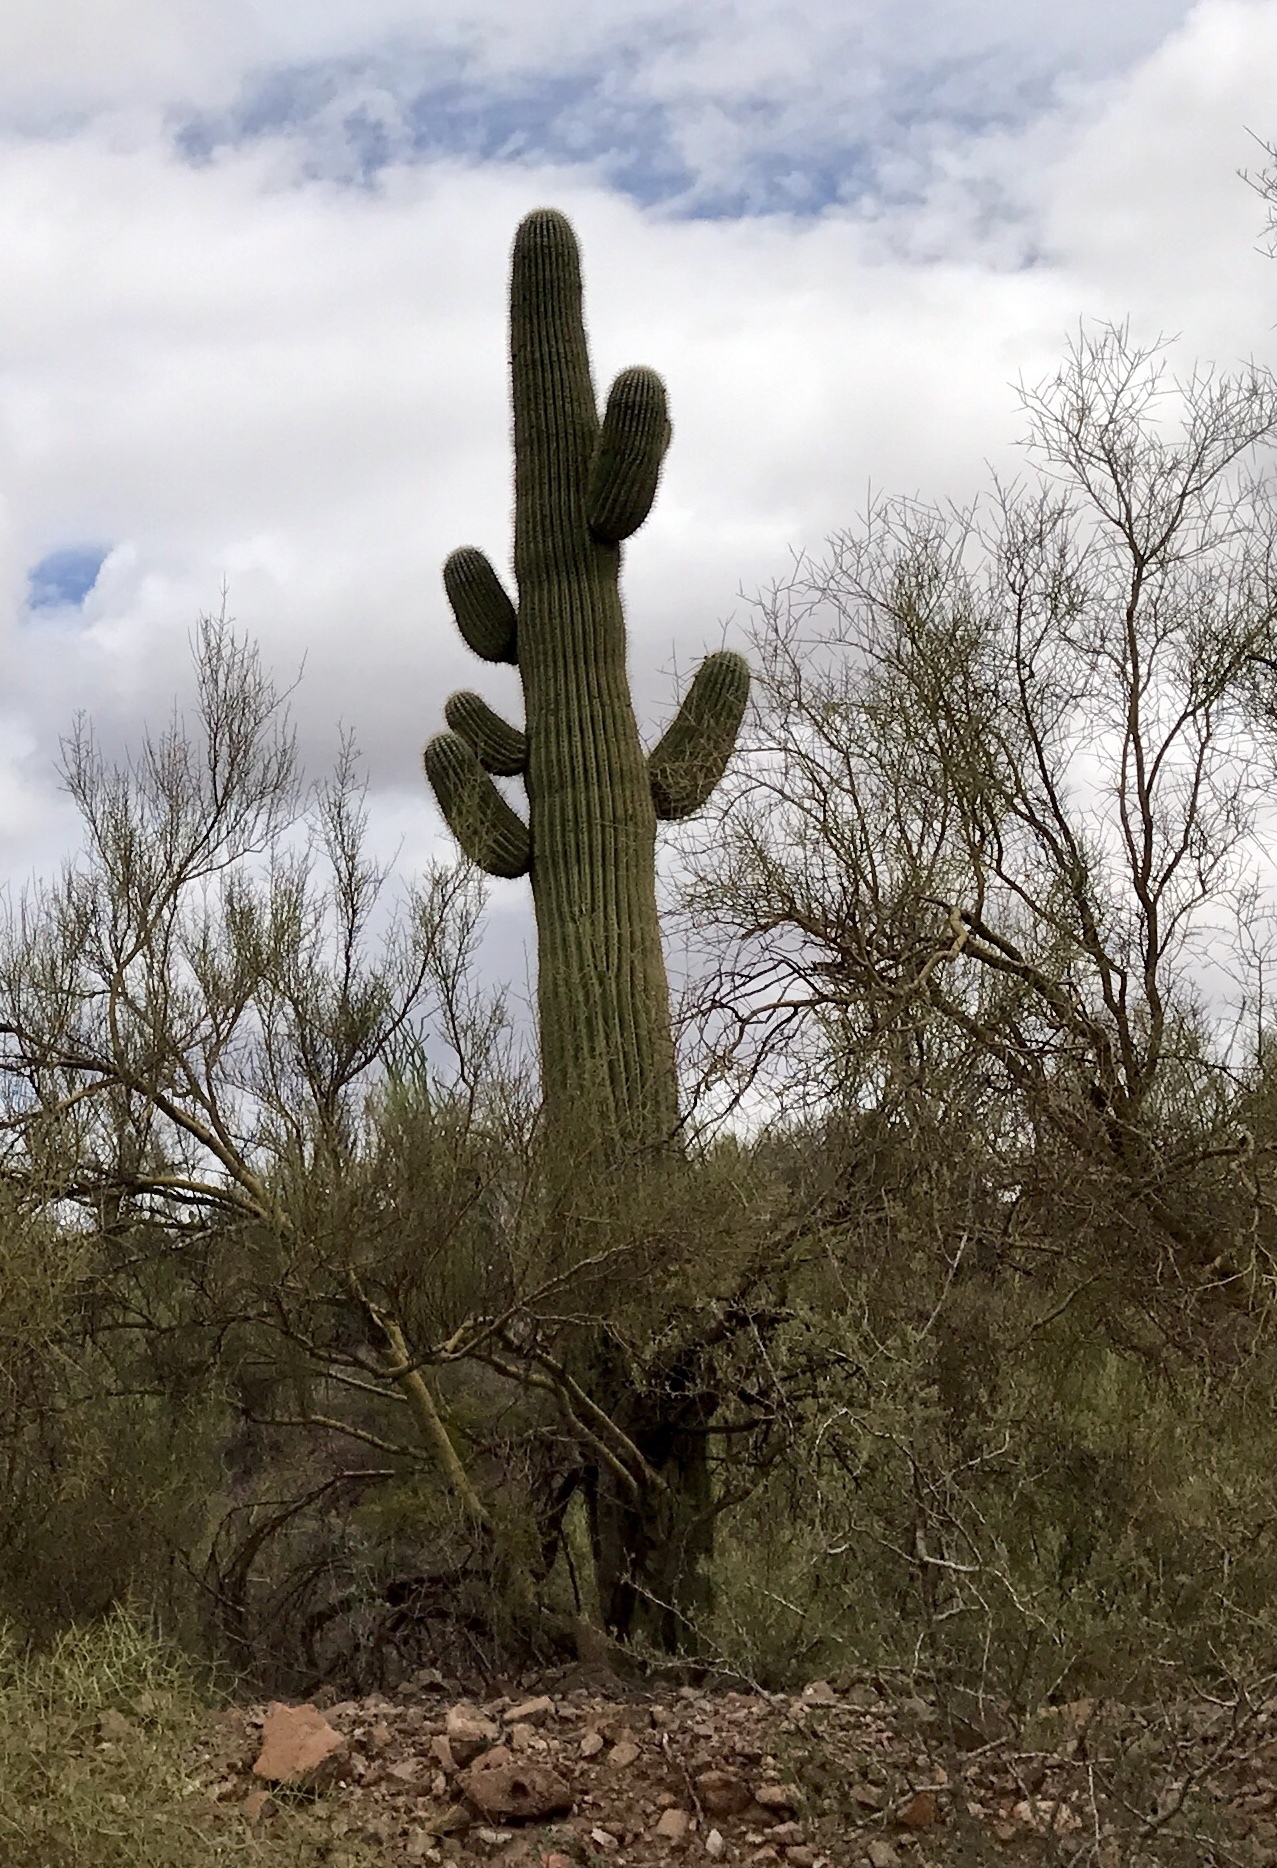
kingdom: Plantae
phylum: Tracheophyta
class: Magnoliopsida
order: Caryophyllales
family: Cactaceae
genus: Carnegiea
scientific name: Carnegiea gigantea
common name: Saguaro
